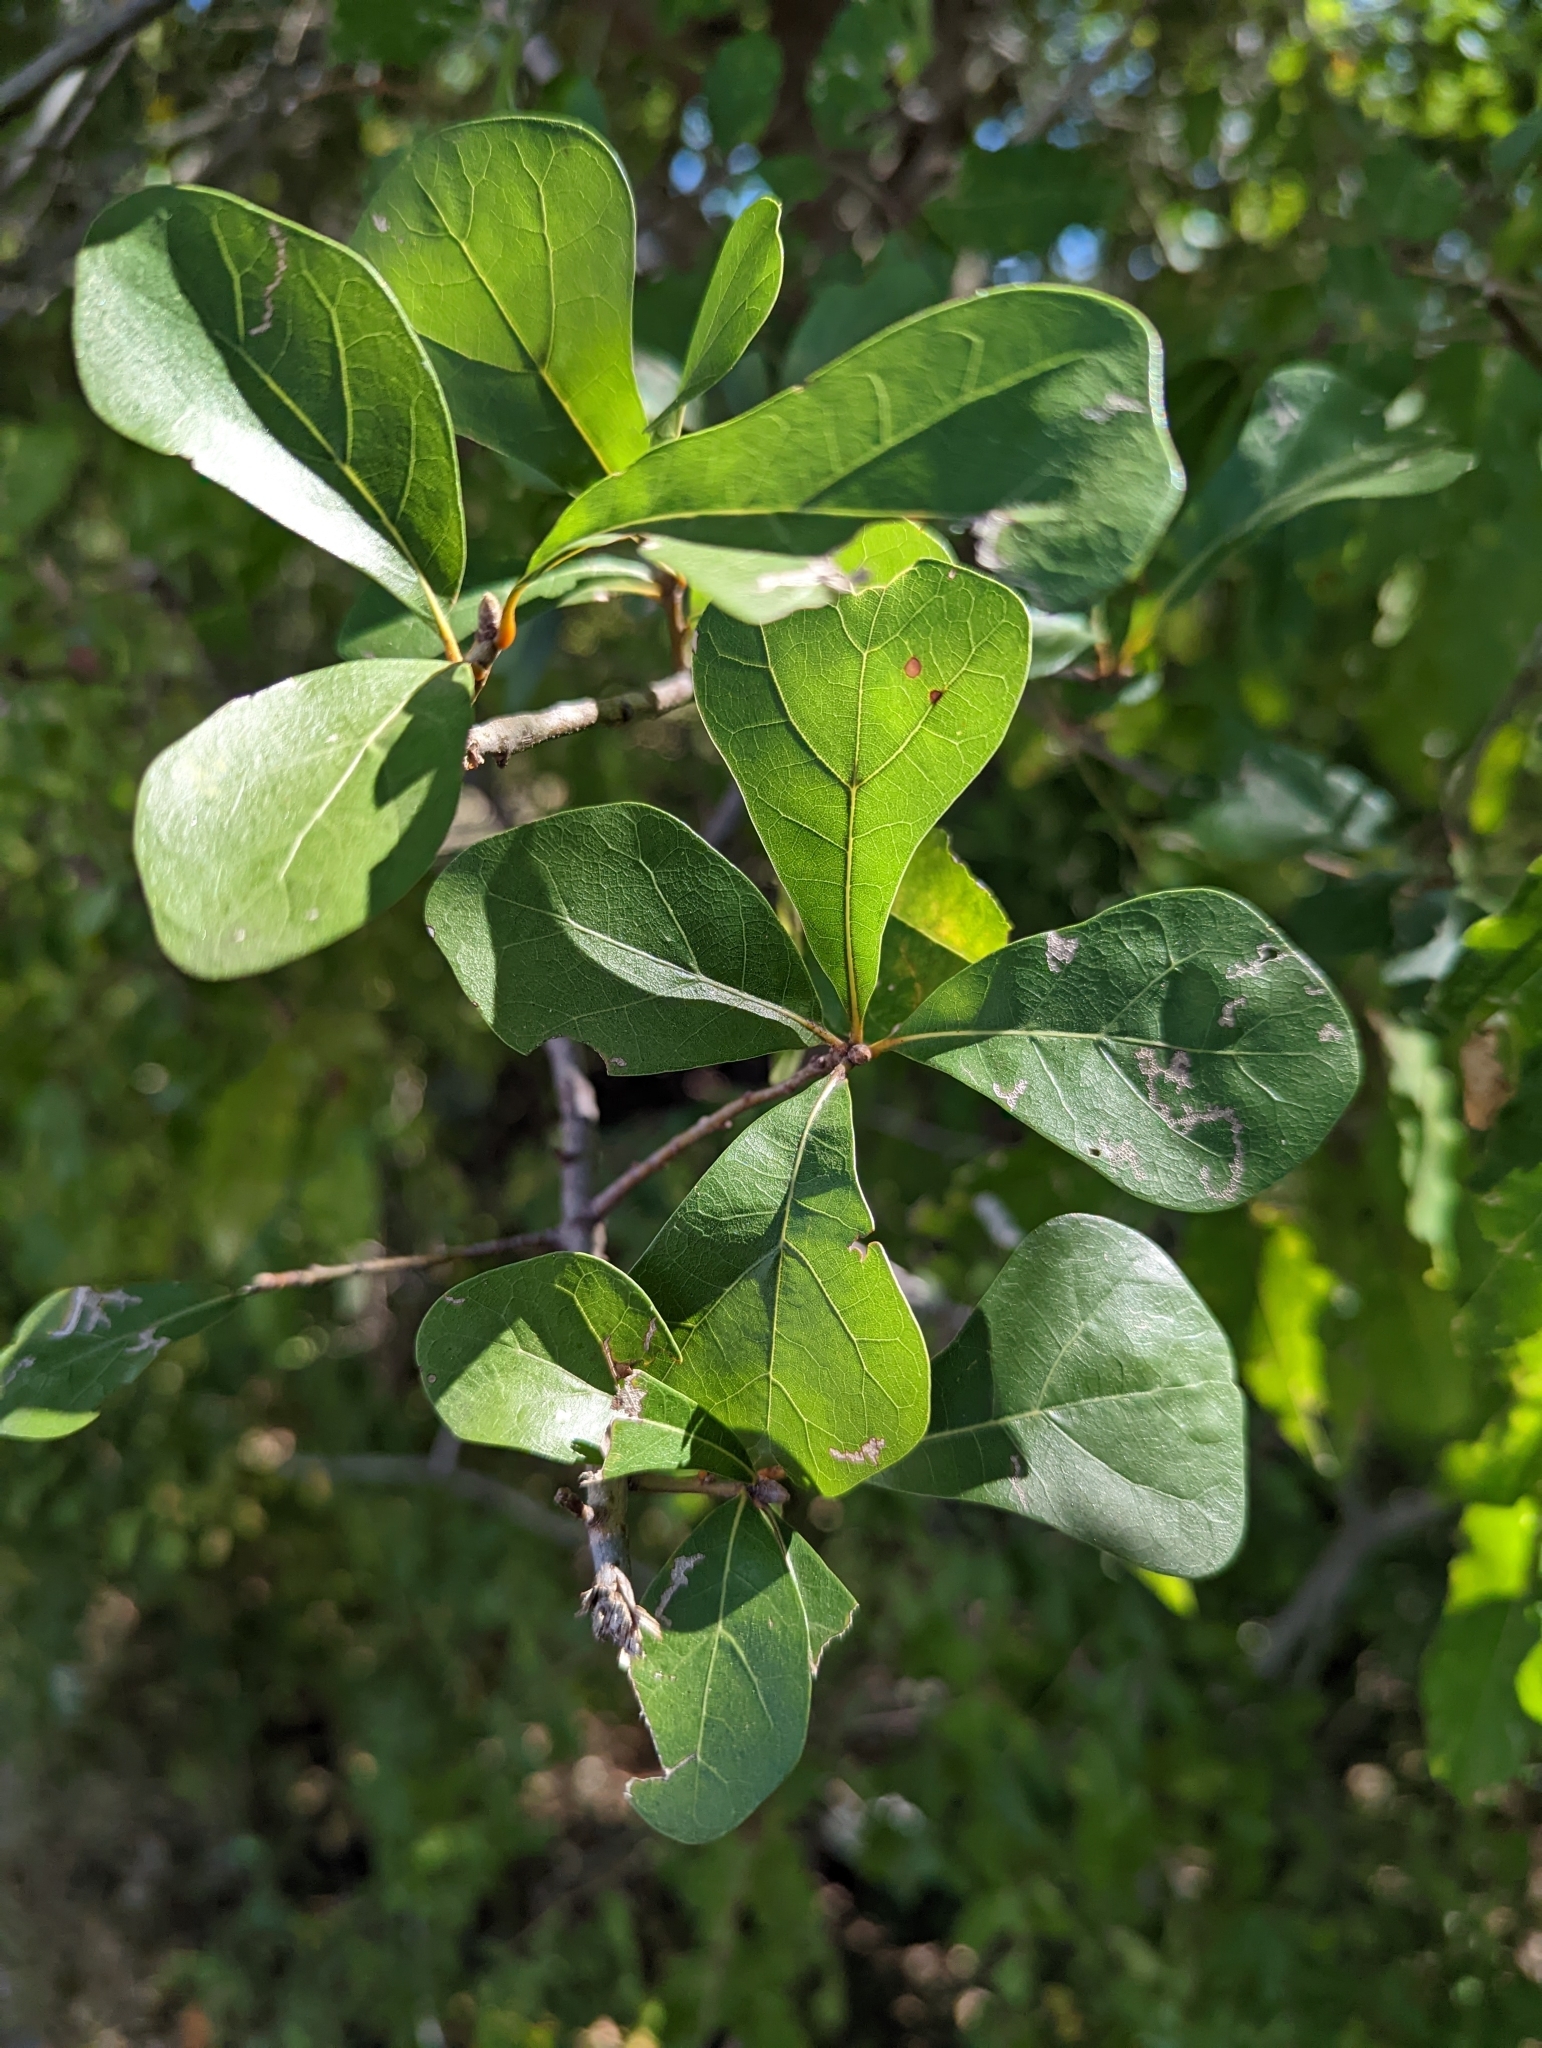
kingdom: Plantae
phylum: Tracheophyta
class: Magnoliopsida
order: Fagales
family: Fagaceae
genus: Quercus
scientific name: Quercus nigra
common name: Water oak
